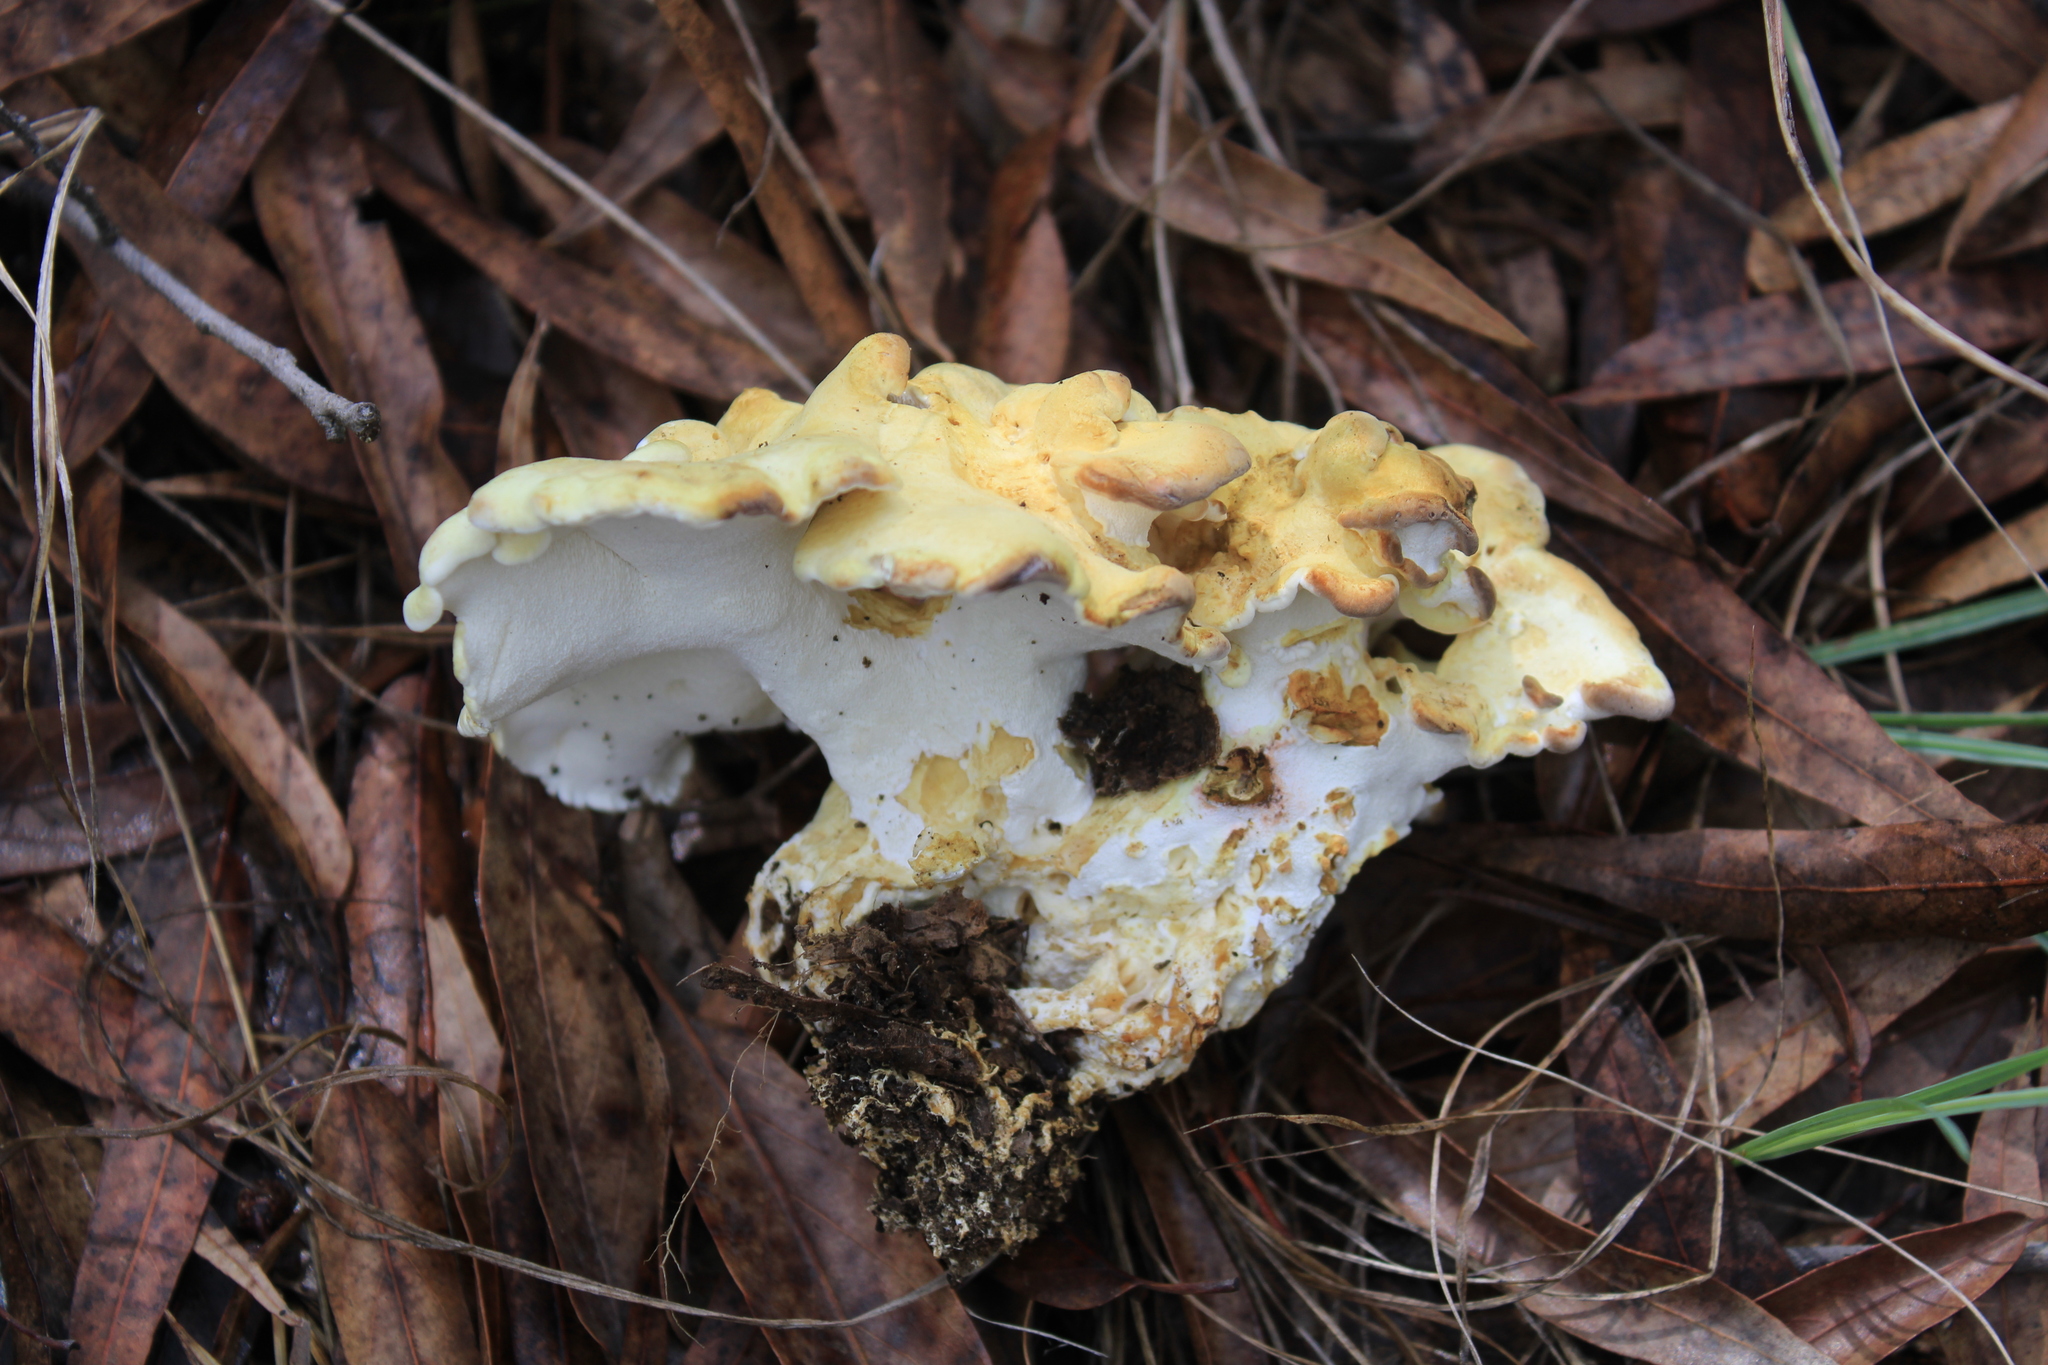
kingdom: Fungi
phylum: Basidiomycota
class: Agaricomycetes
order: Russulales
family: Albatrellaceae
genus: Albatrellus
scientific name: Albatrellus citrinus
